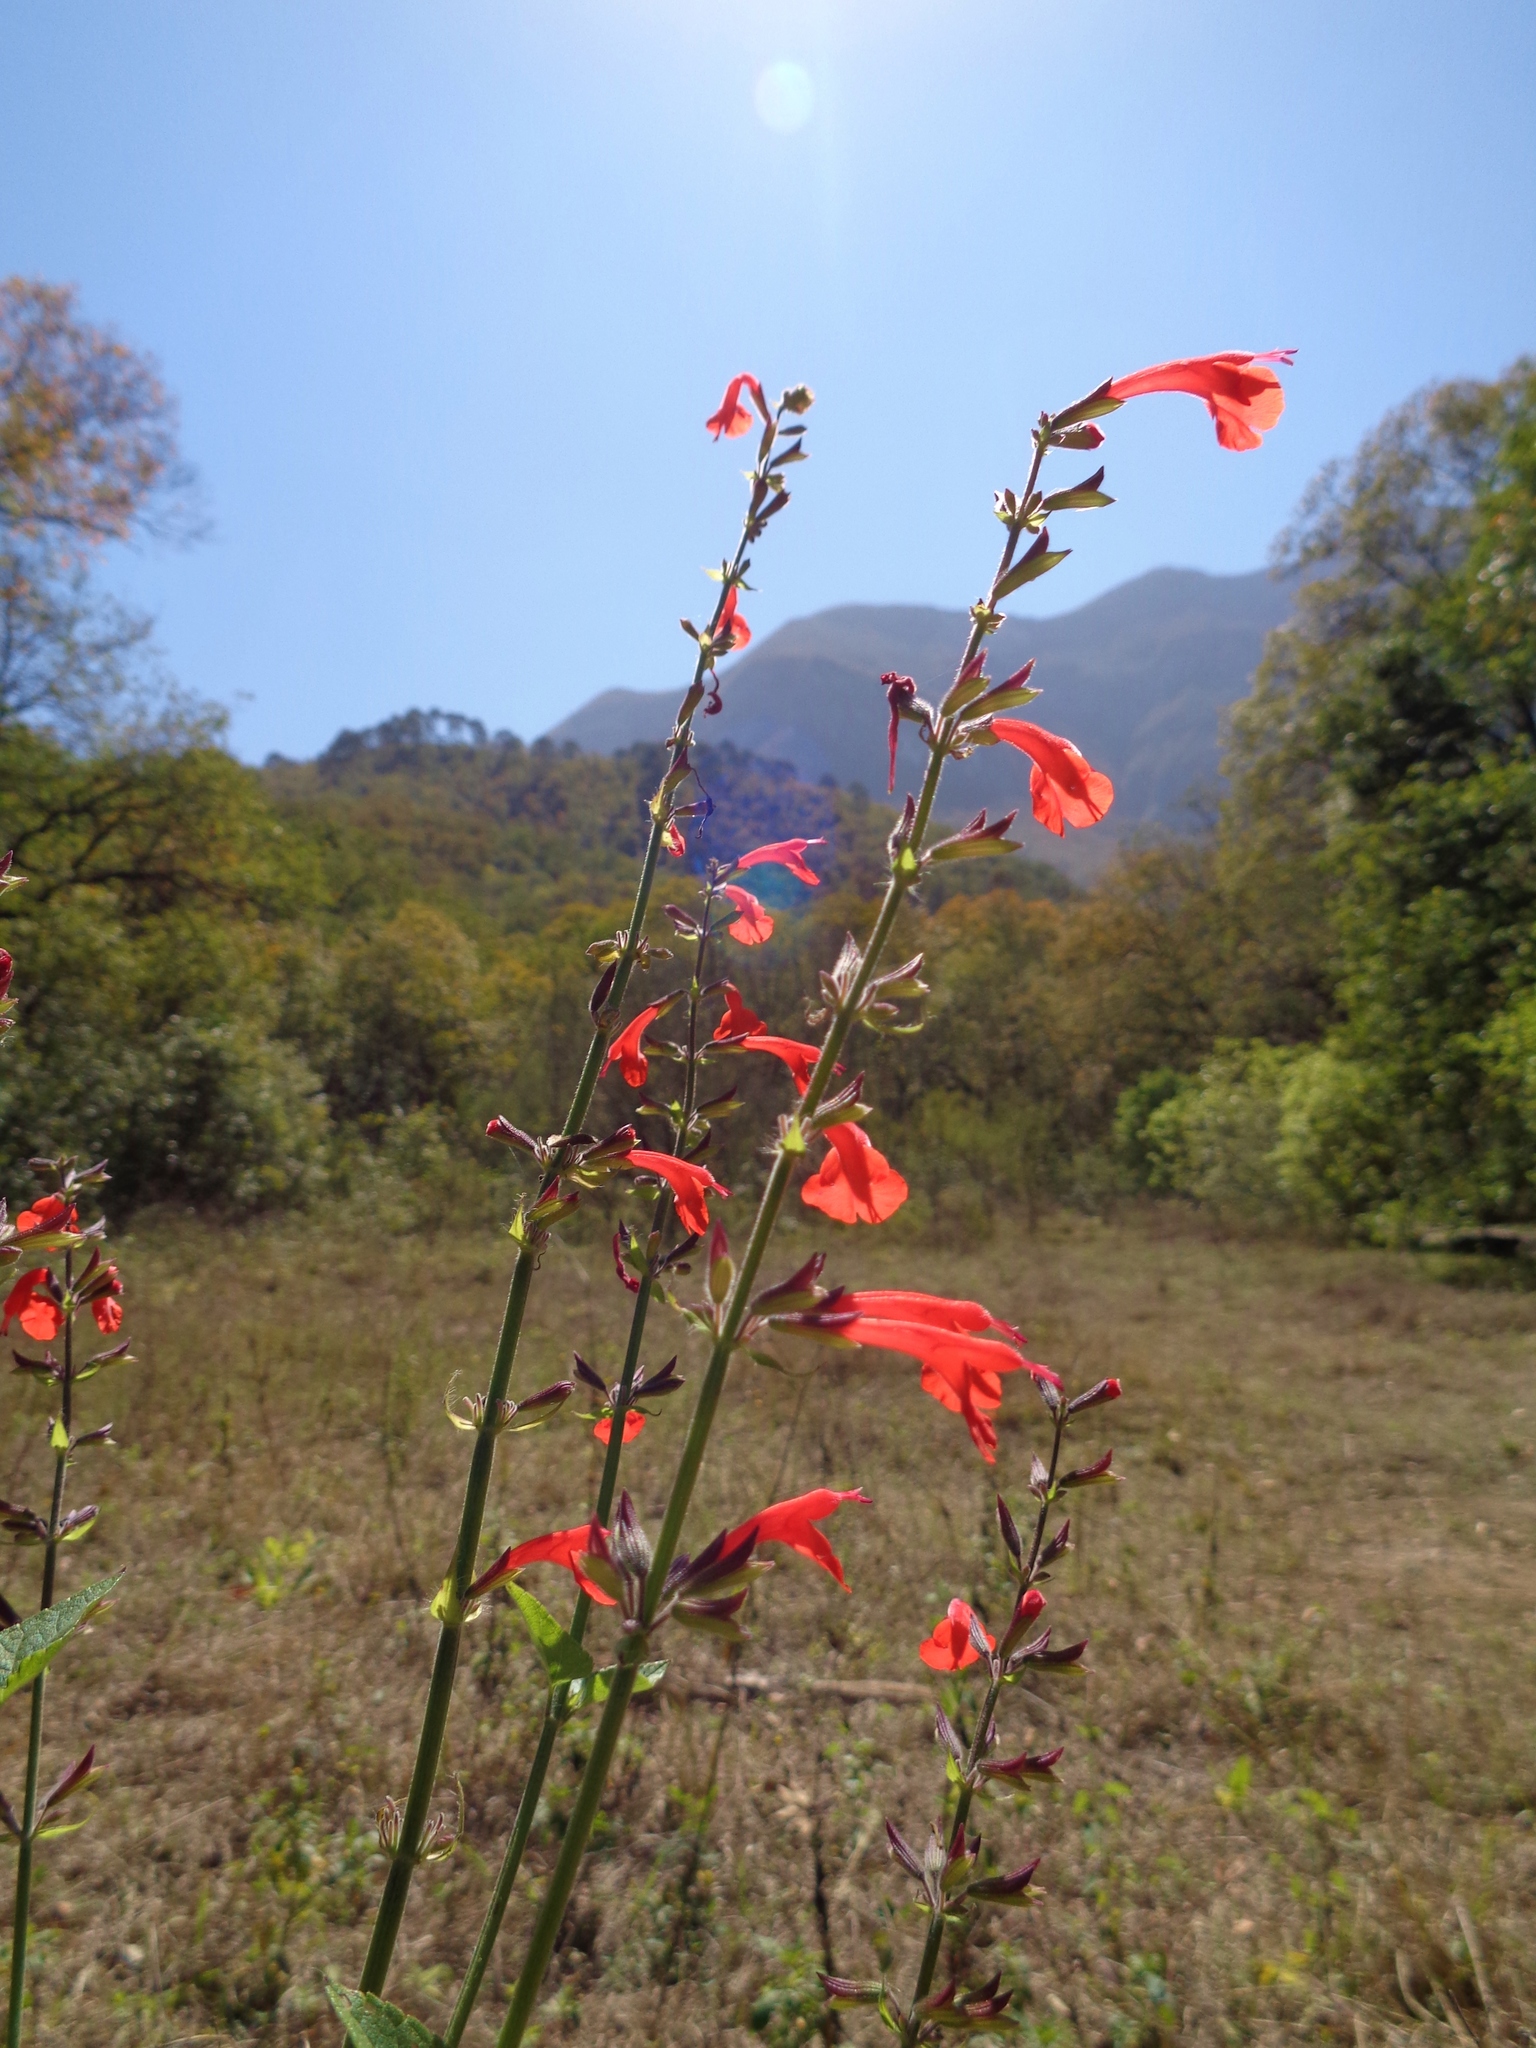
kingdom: Plantae
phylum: Tracheophyta
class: Magnoliopsida
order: Lamiales
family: Lamiaceae
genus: Salvia
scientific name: Salvia coccinea
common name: Blood sage
